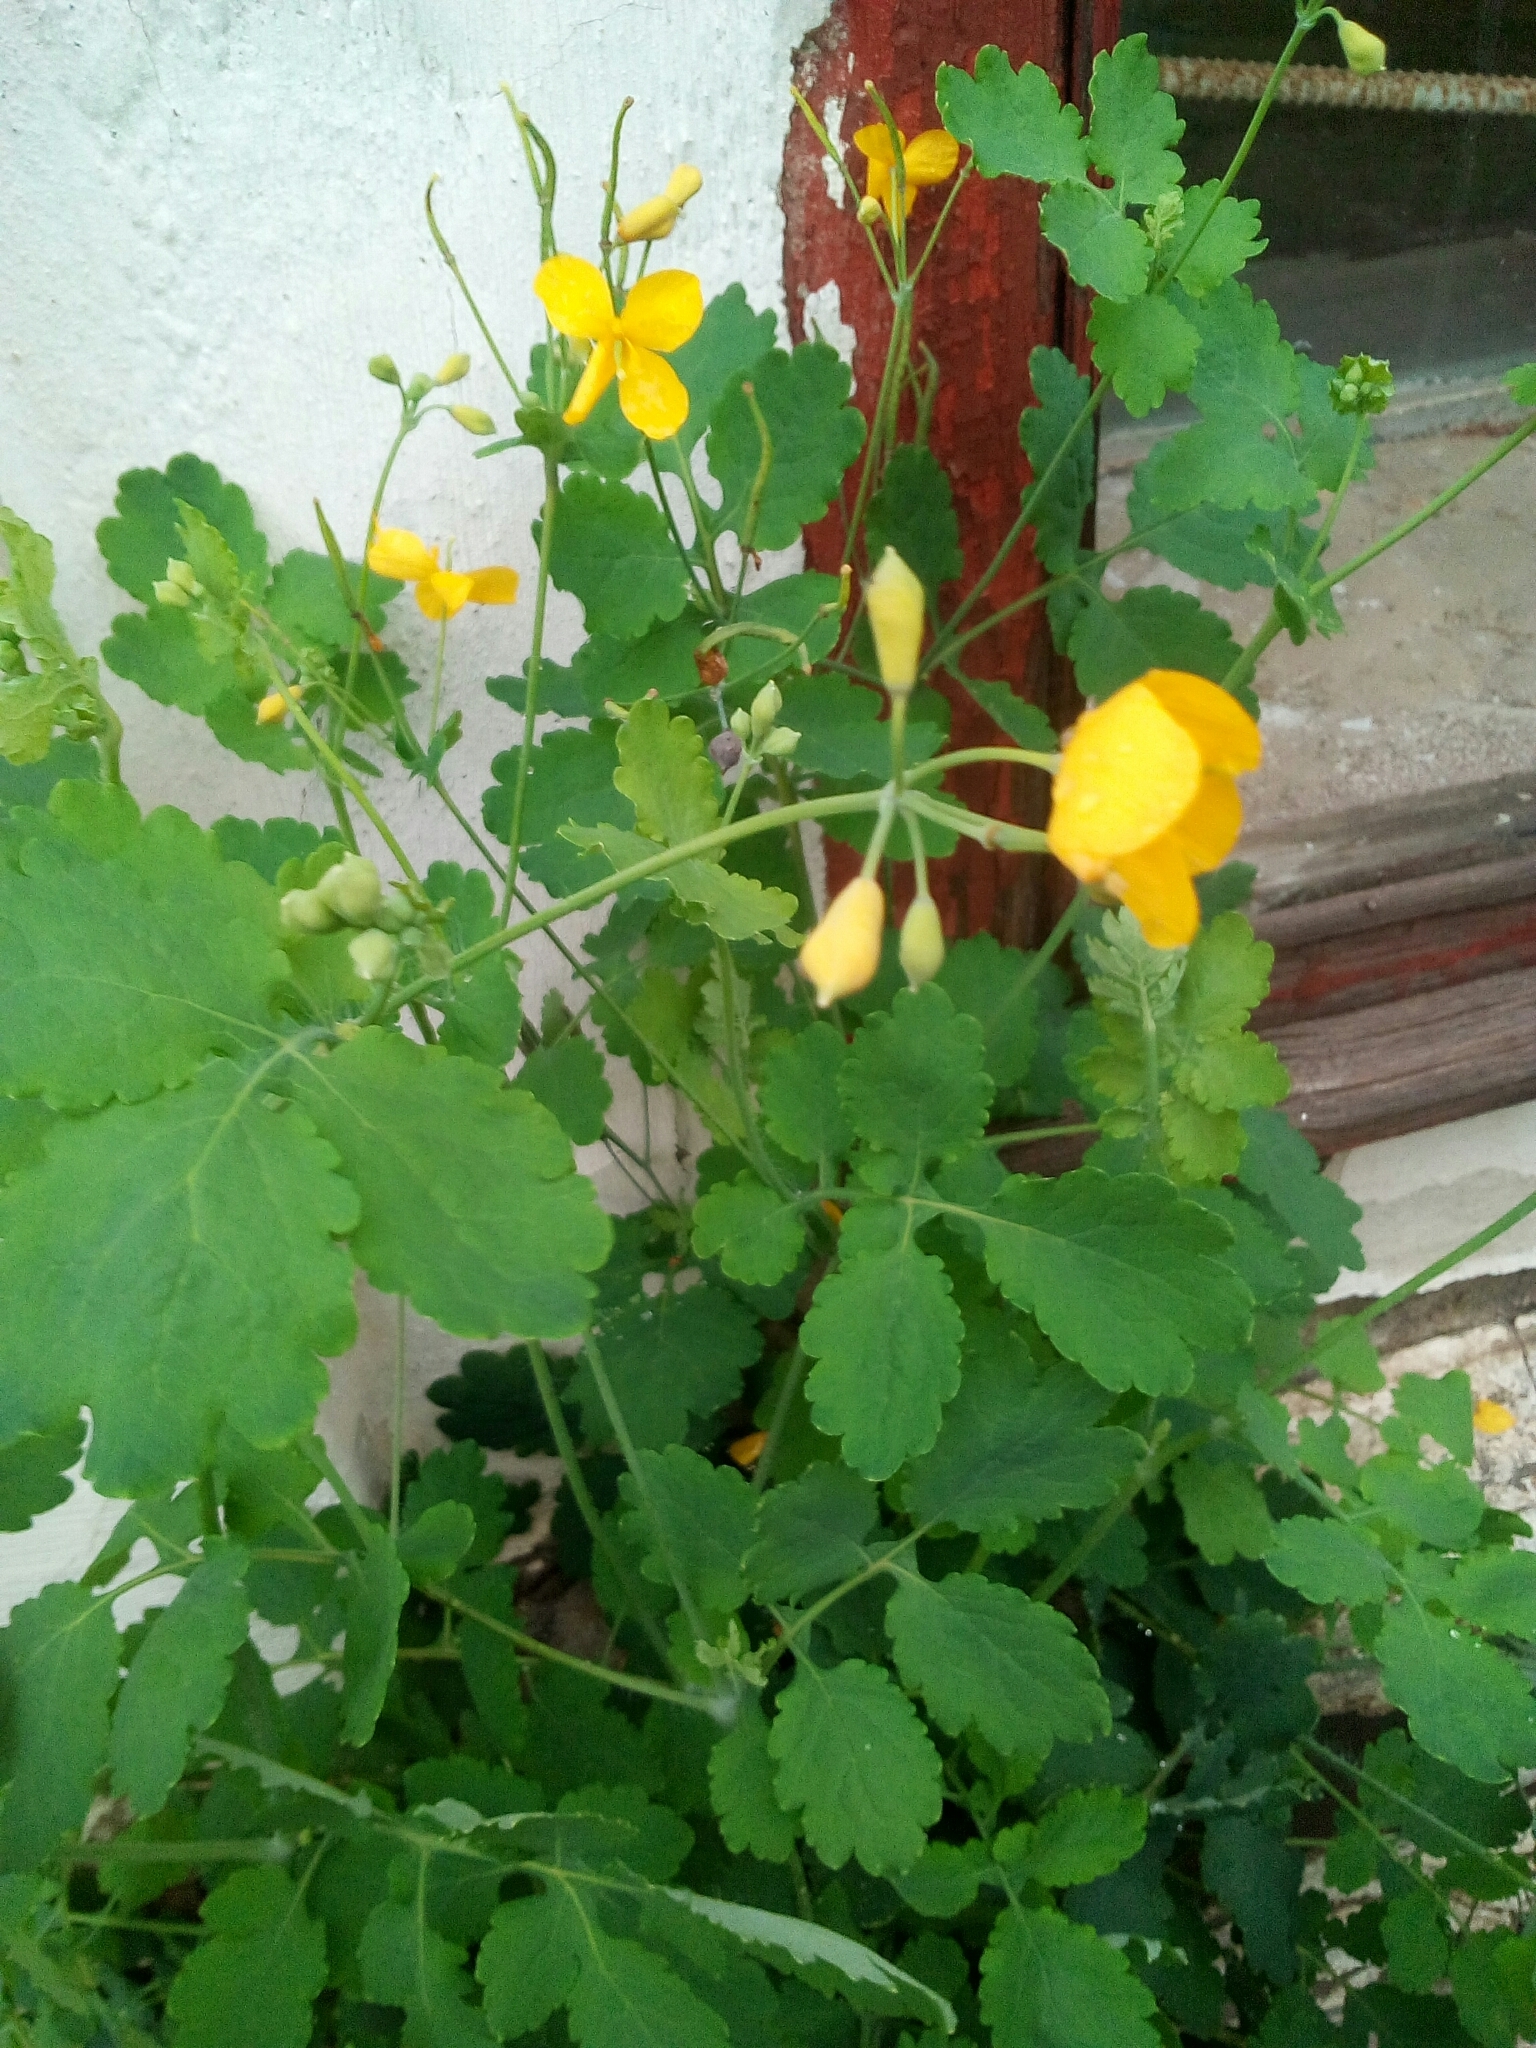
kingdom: Plantae
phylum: Tracheophyta
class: Magnoliopsida
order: Ranunculales
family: Papaveraceae
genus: Chelidonium
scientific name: Chelidonium majus
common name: Greater celandine
